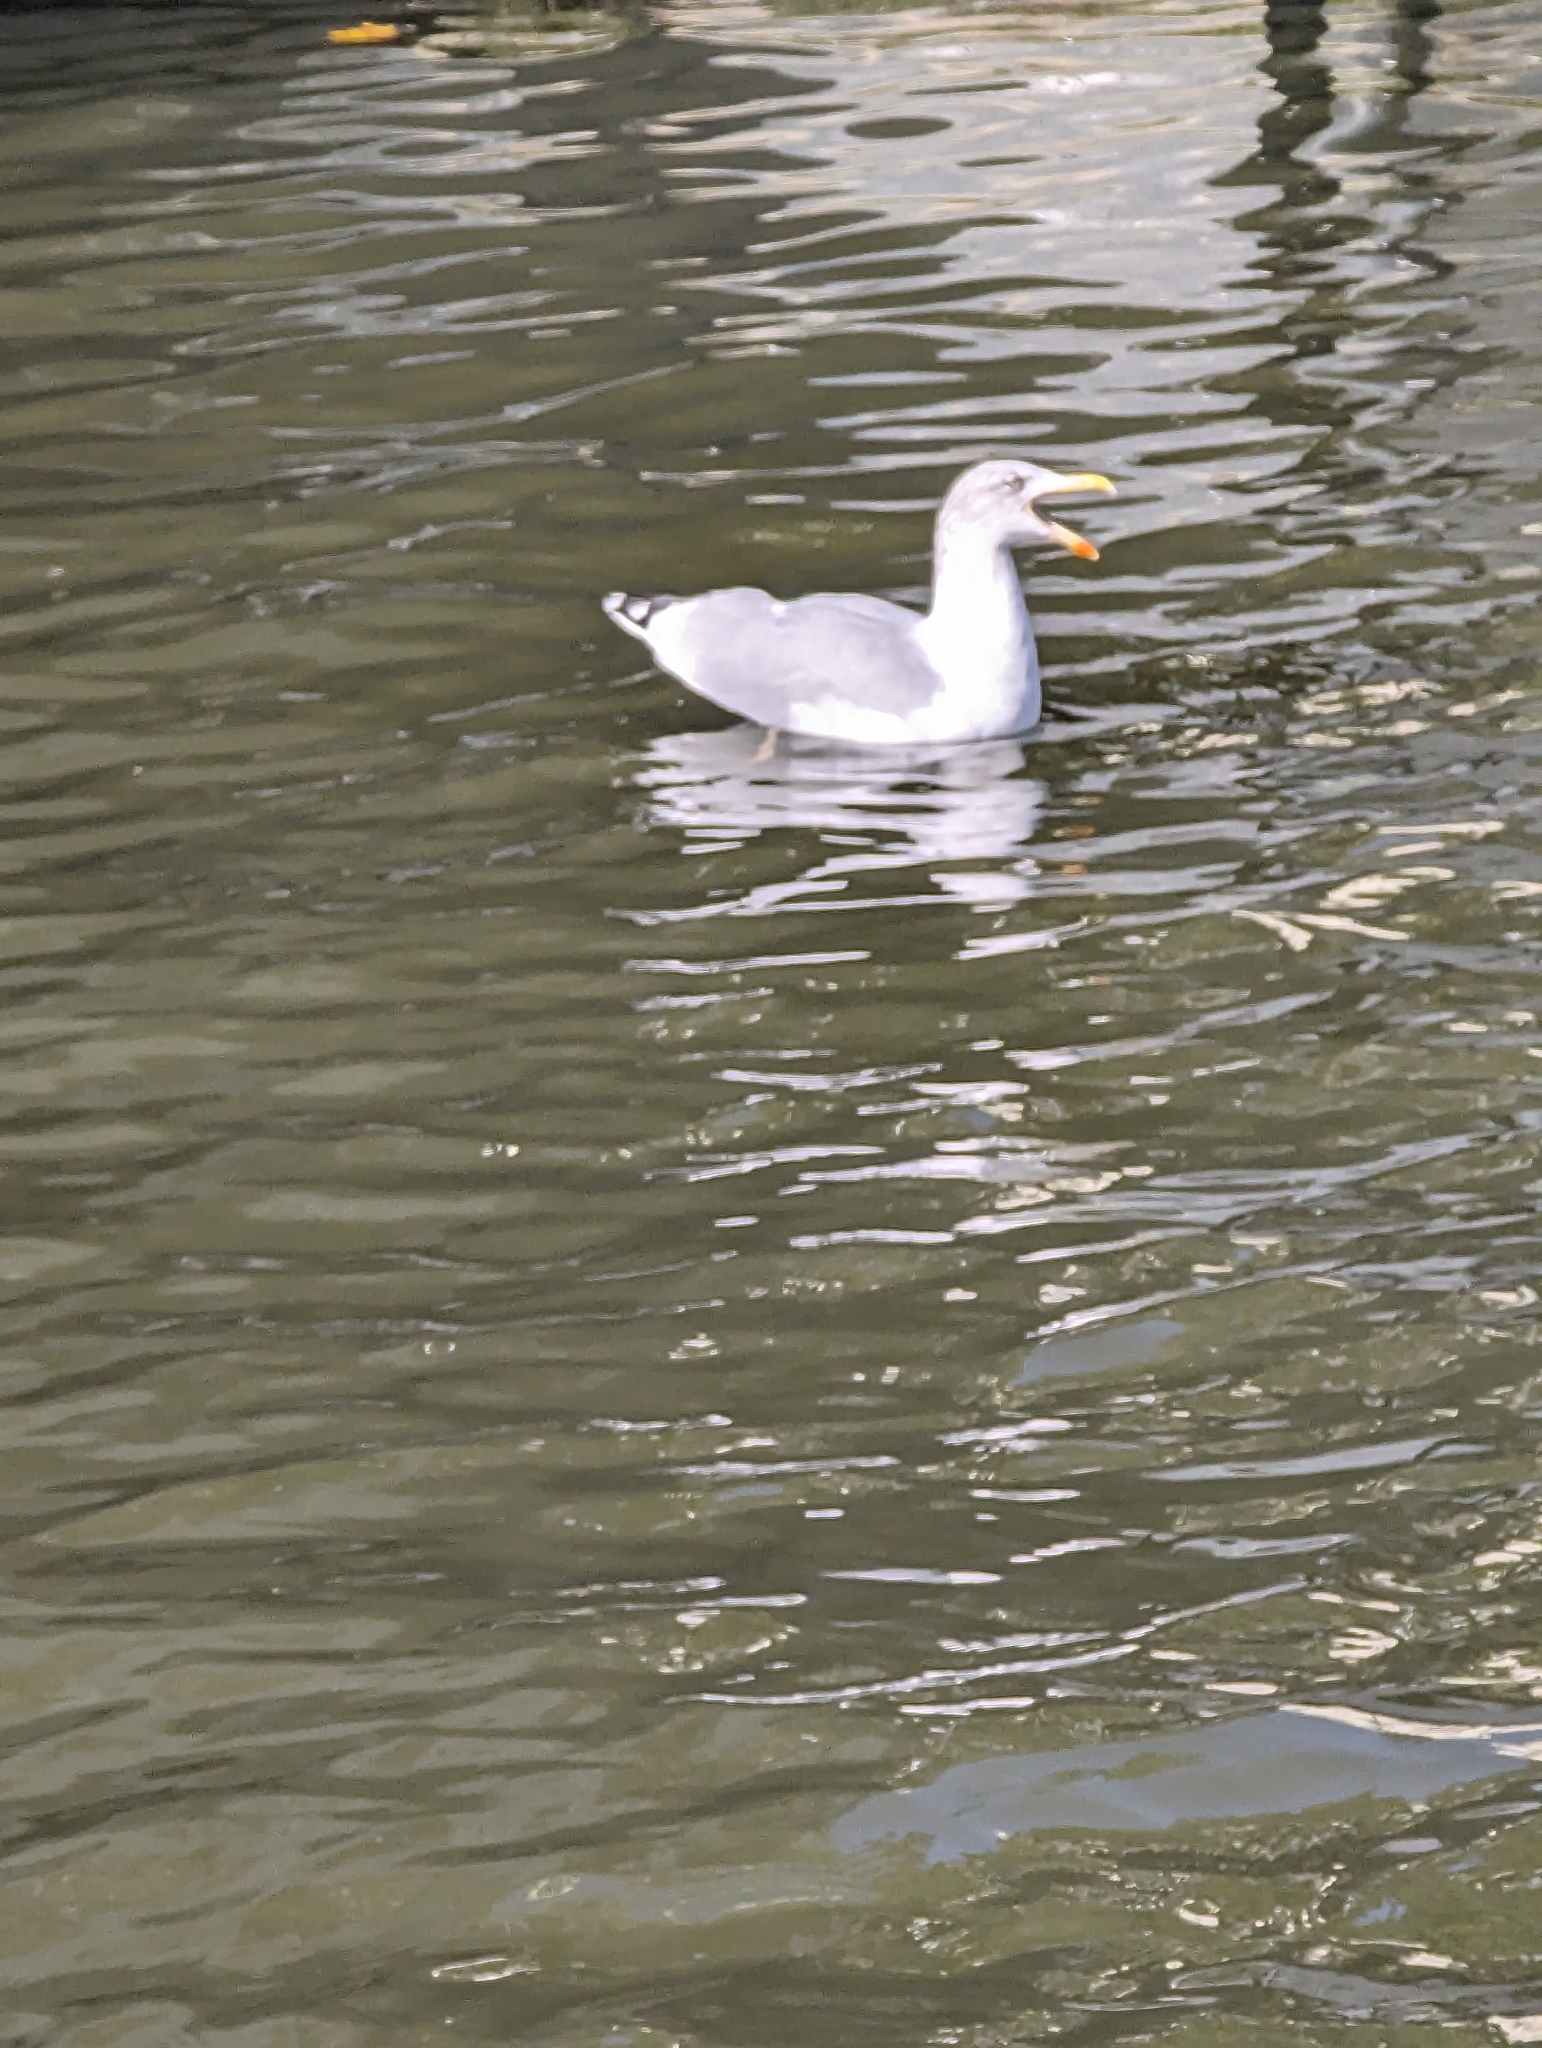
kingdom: Animalia
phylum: Chordata
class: Aves
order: Charadriiformes
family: Laridae
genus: Larus
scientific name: Larus argentatus
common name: Herring gull
